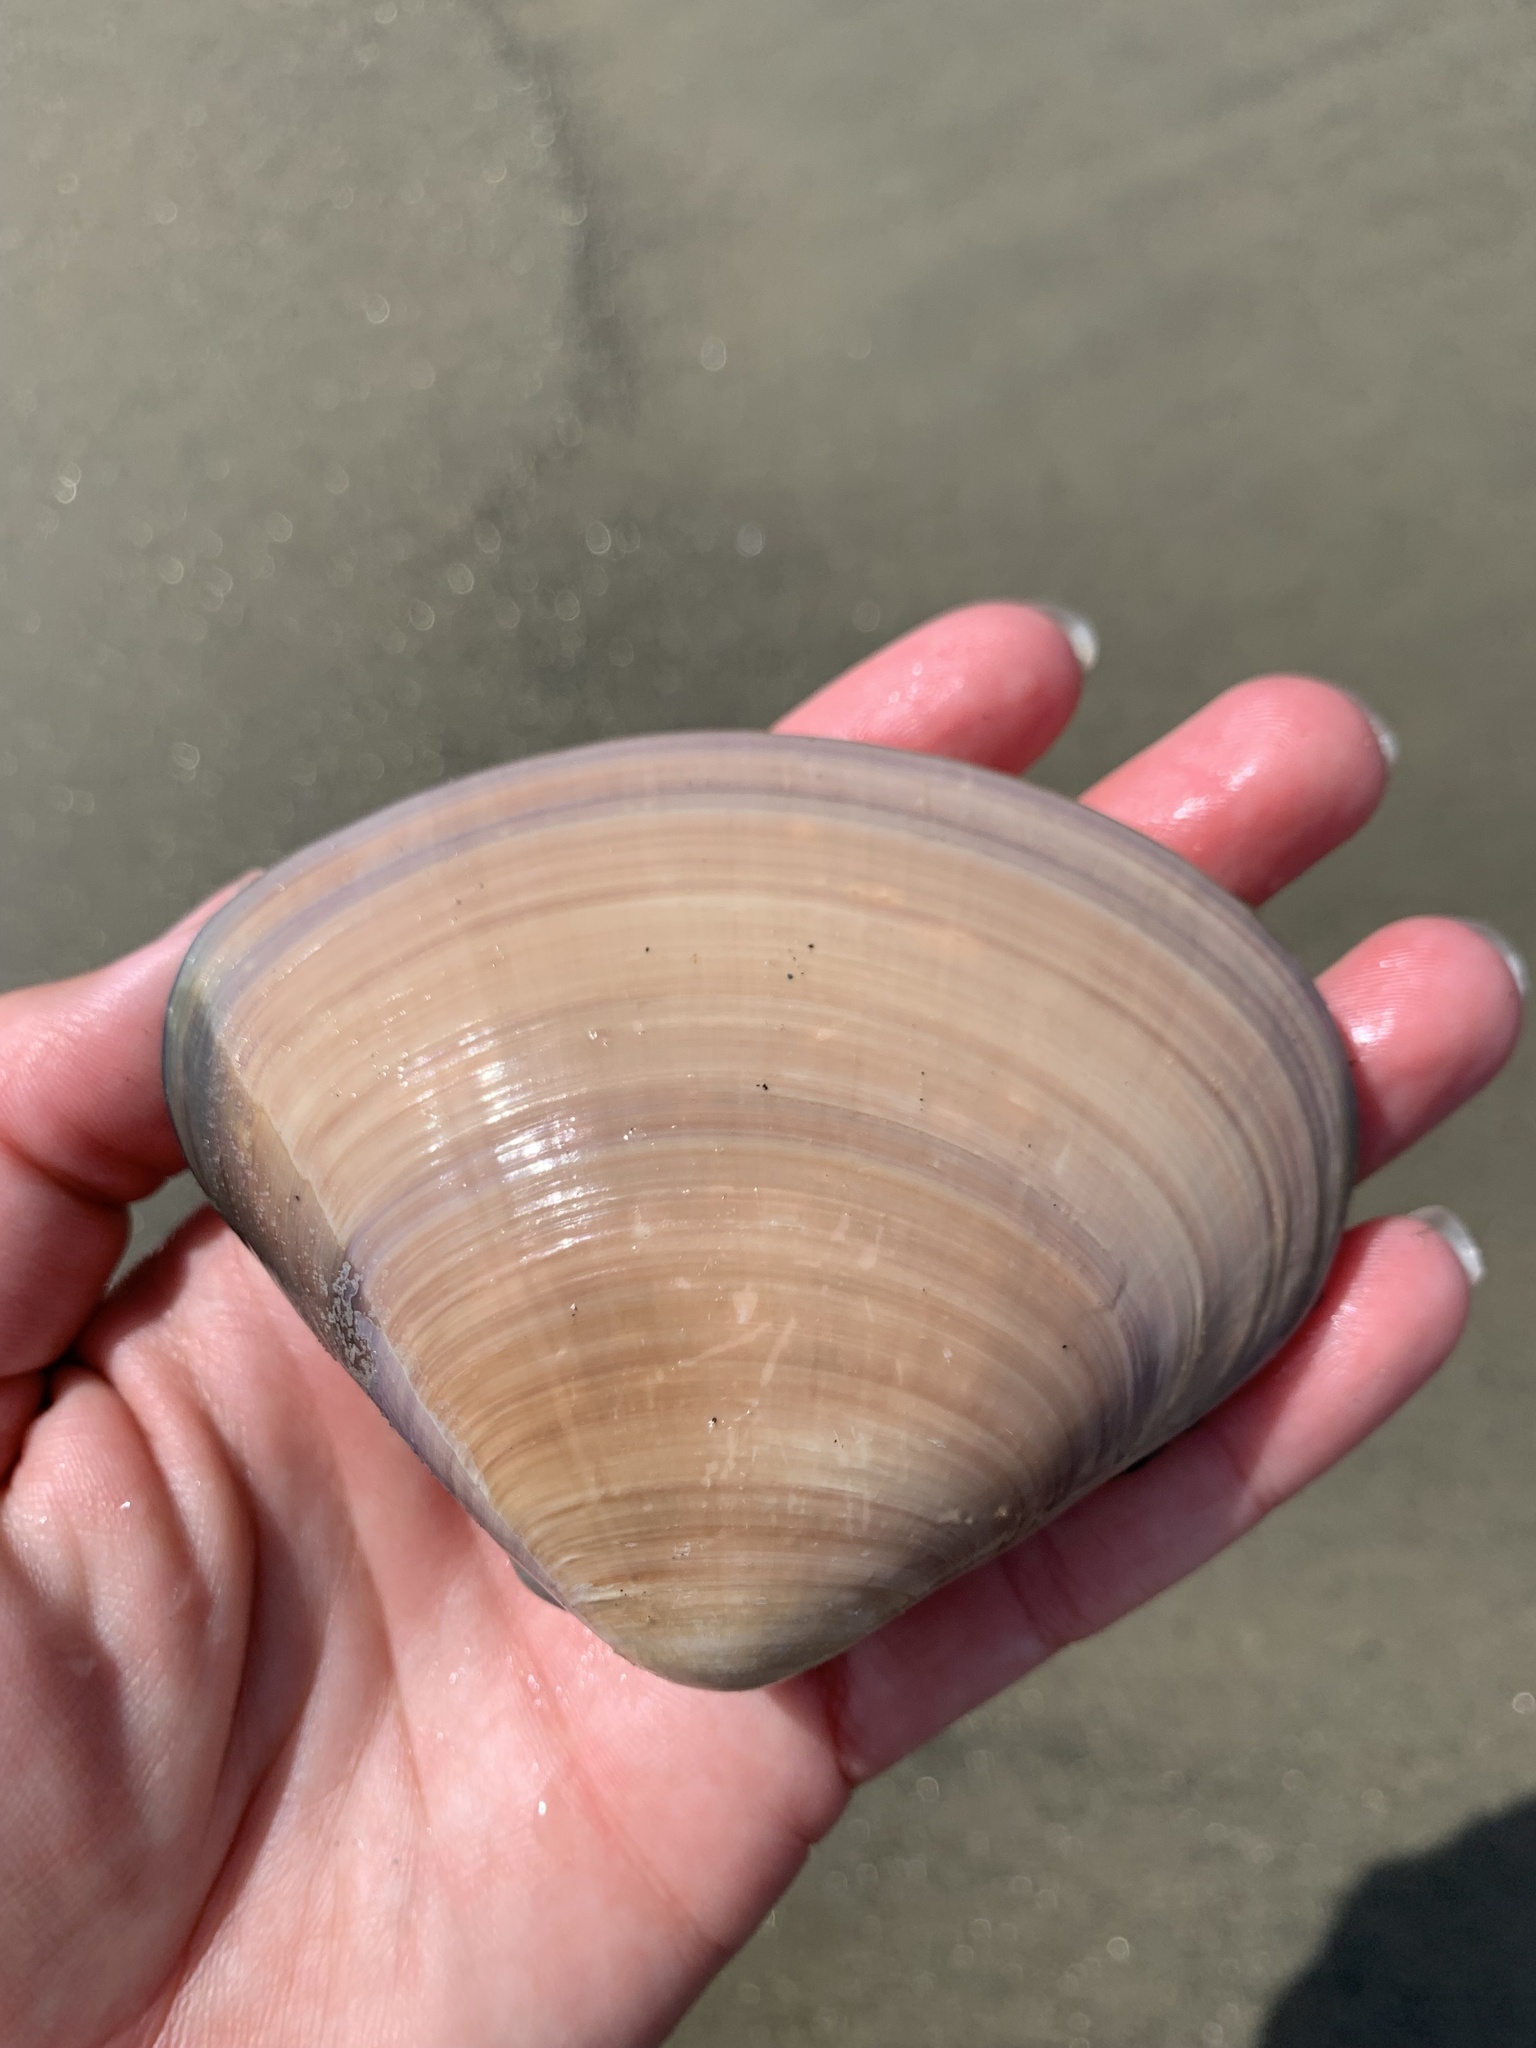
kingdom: Animalia
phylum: Mollusca
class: Bivalvia
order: Venerida
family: Veneridae
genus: Tivela
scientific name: Tivela stultorum
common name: Pismo clam
